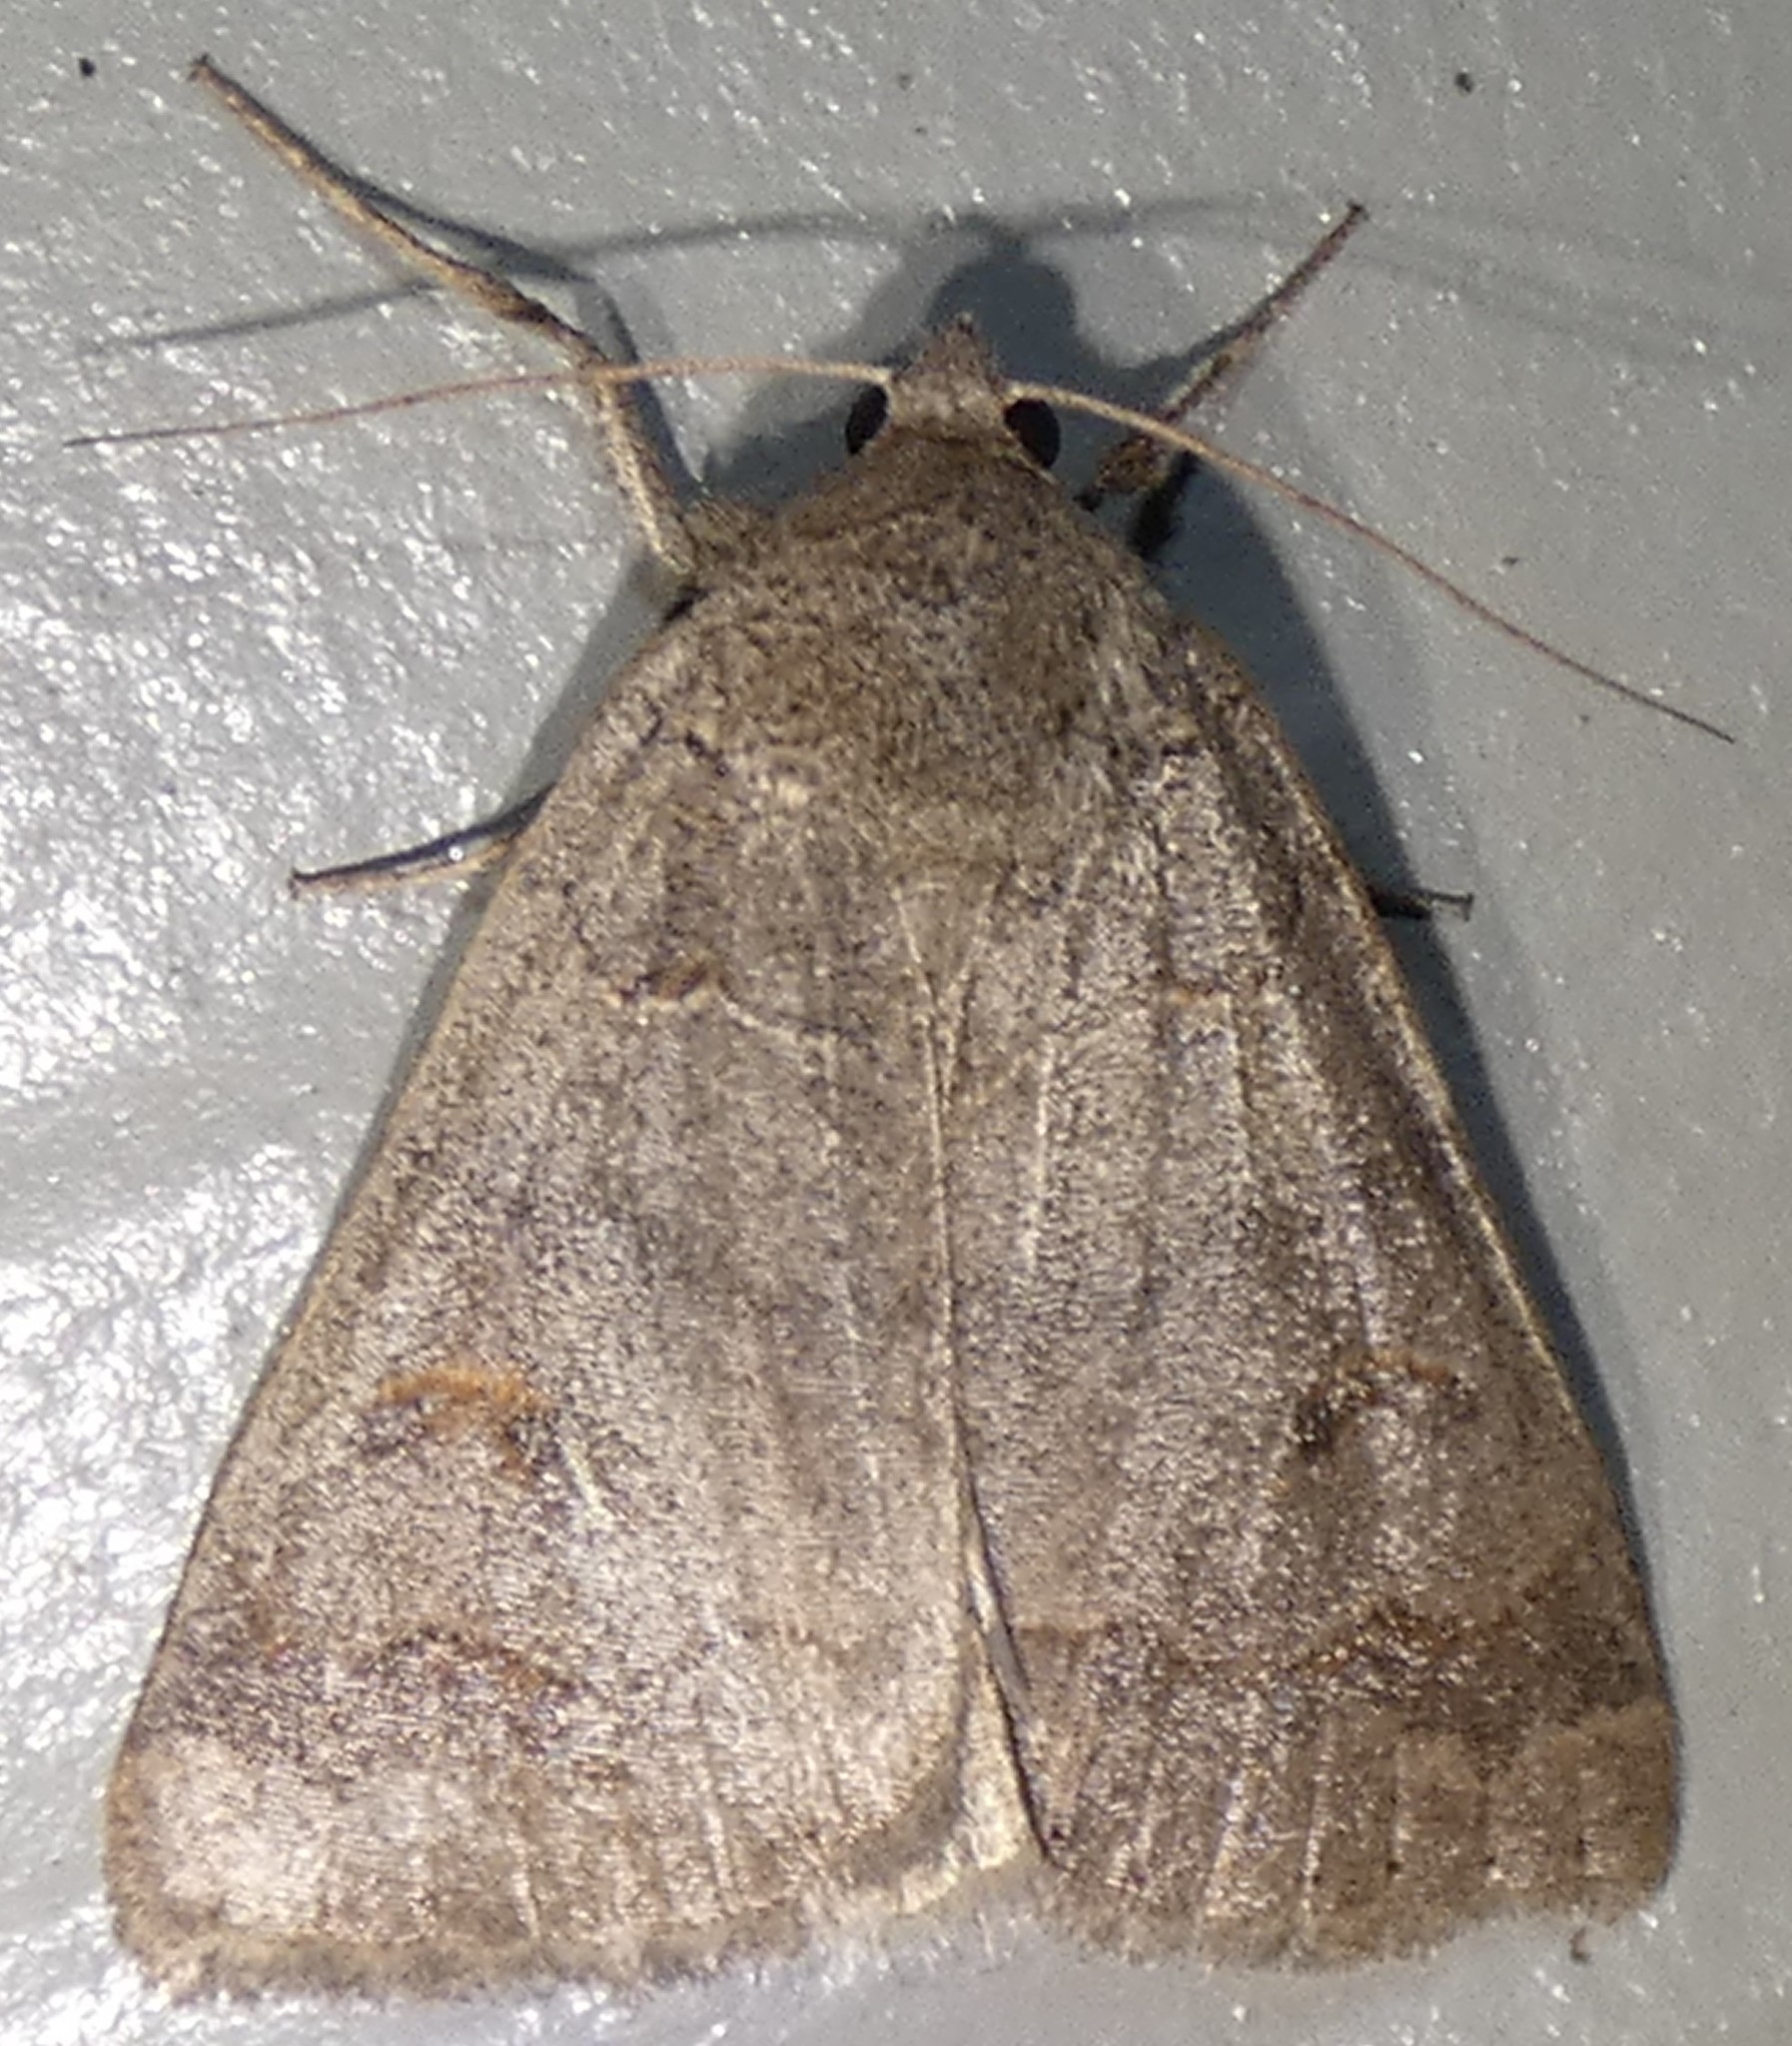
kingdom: Animalia
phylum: Arthropoda
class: Insecta
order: Lepidoptera
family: Erebidae
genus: Phoberia
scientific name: Phoberia atomaris
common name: Common oak moth
